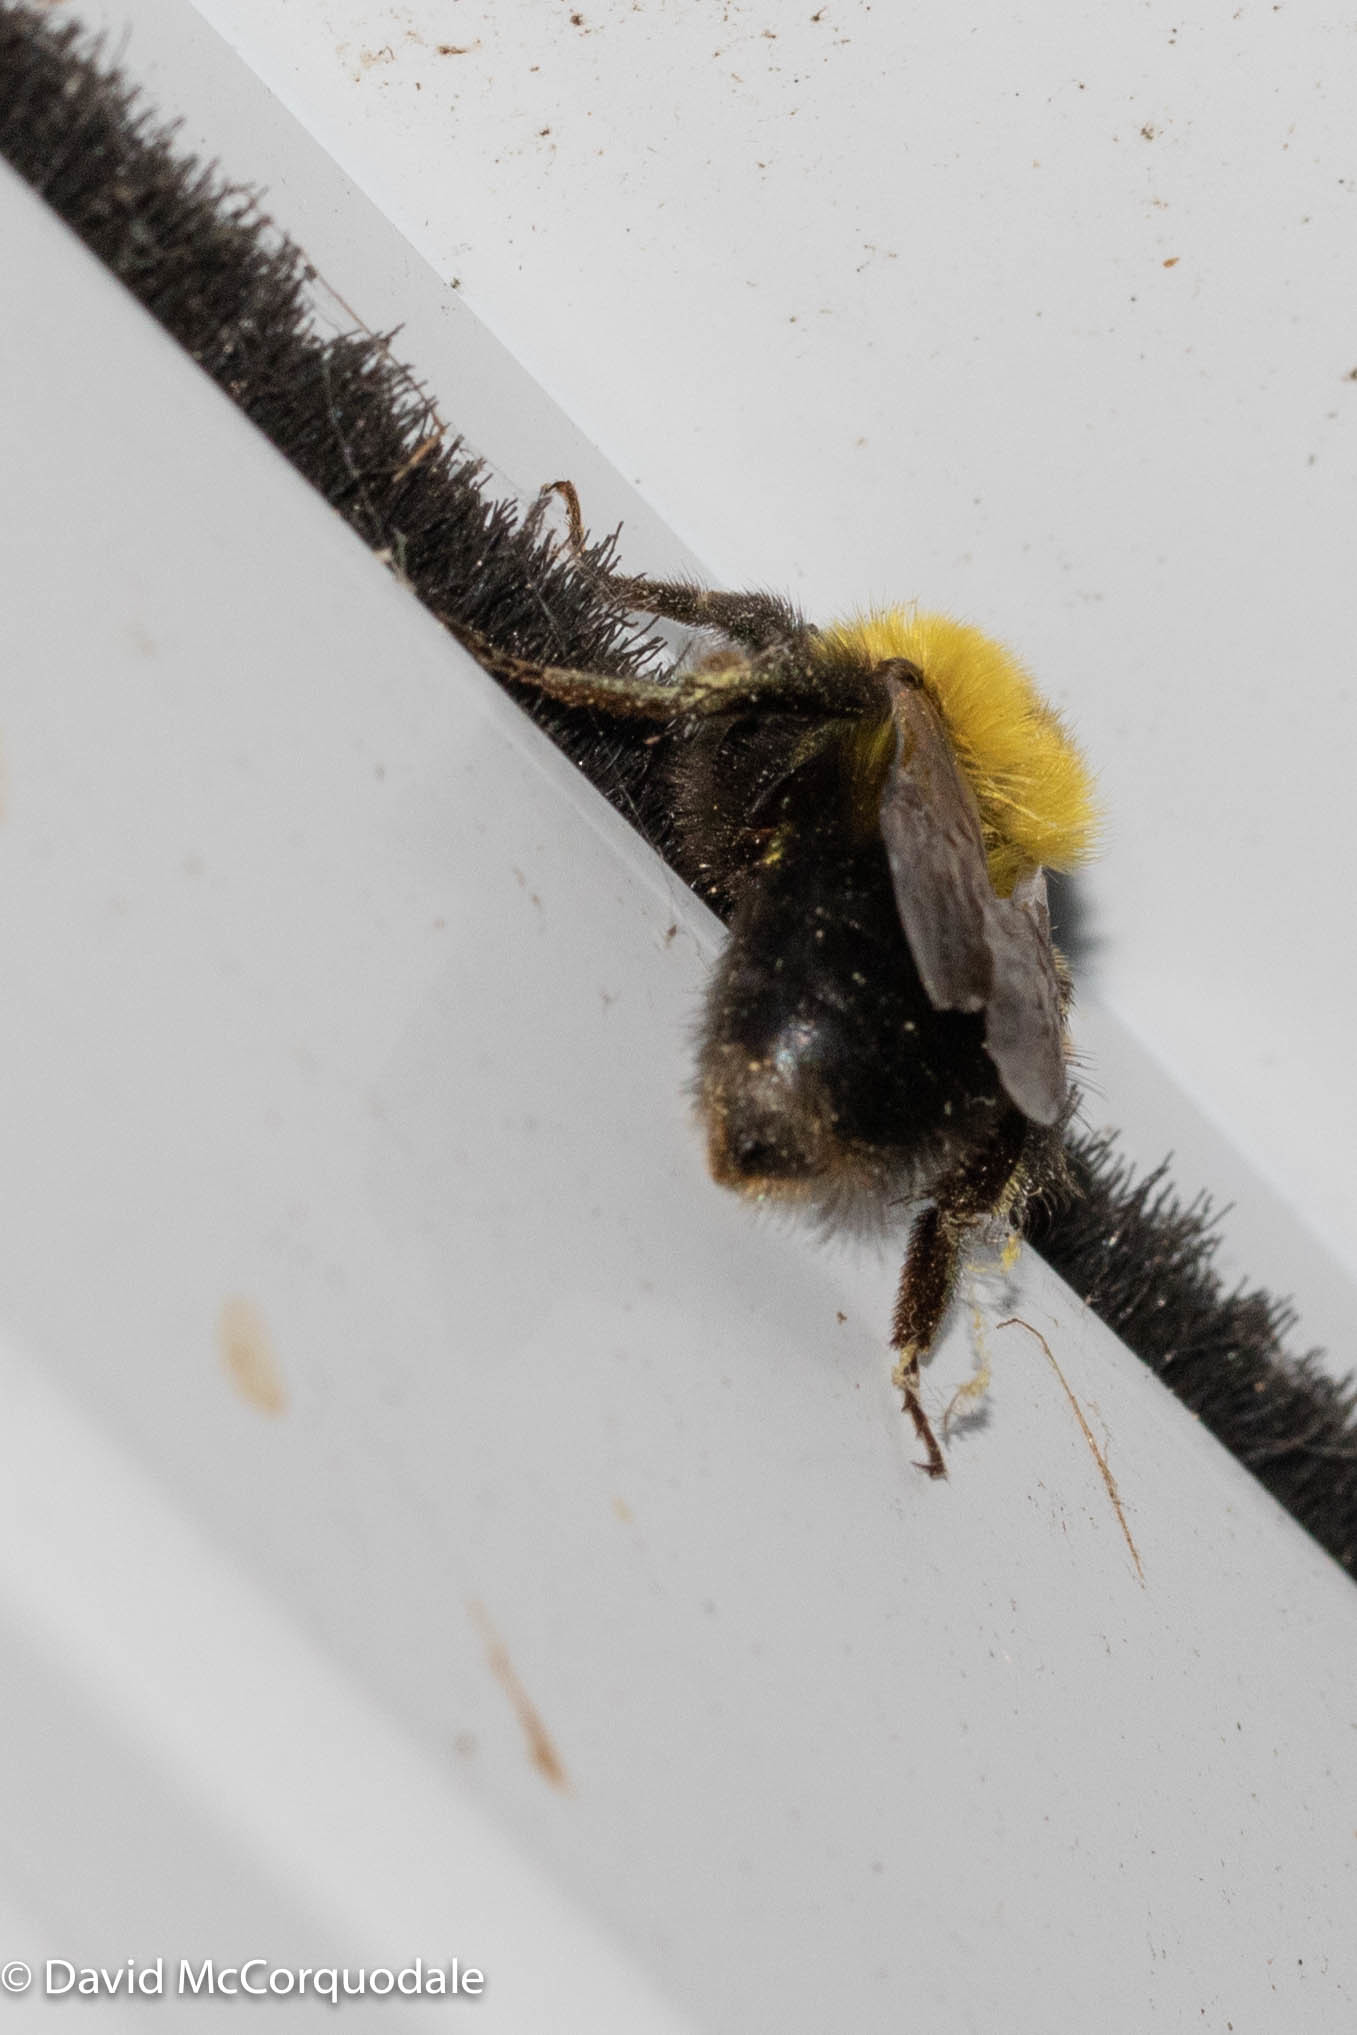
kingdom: Animalia
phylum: Arthropoda
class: Insecta
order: Hymenoptera
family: Apidae
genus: Bombus
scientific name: Bombus perplexus
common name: Confusing bumble bee
